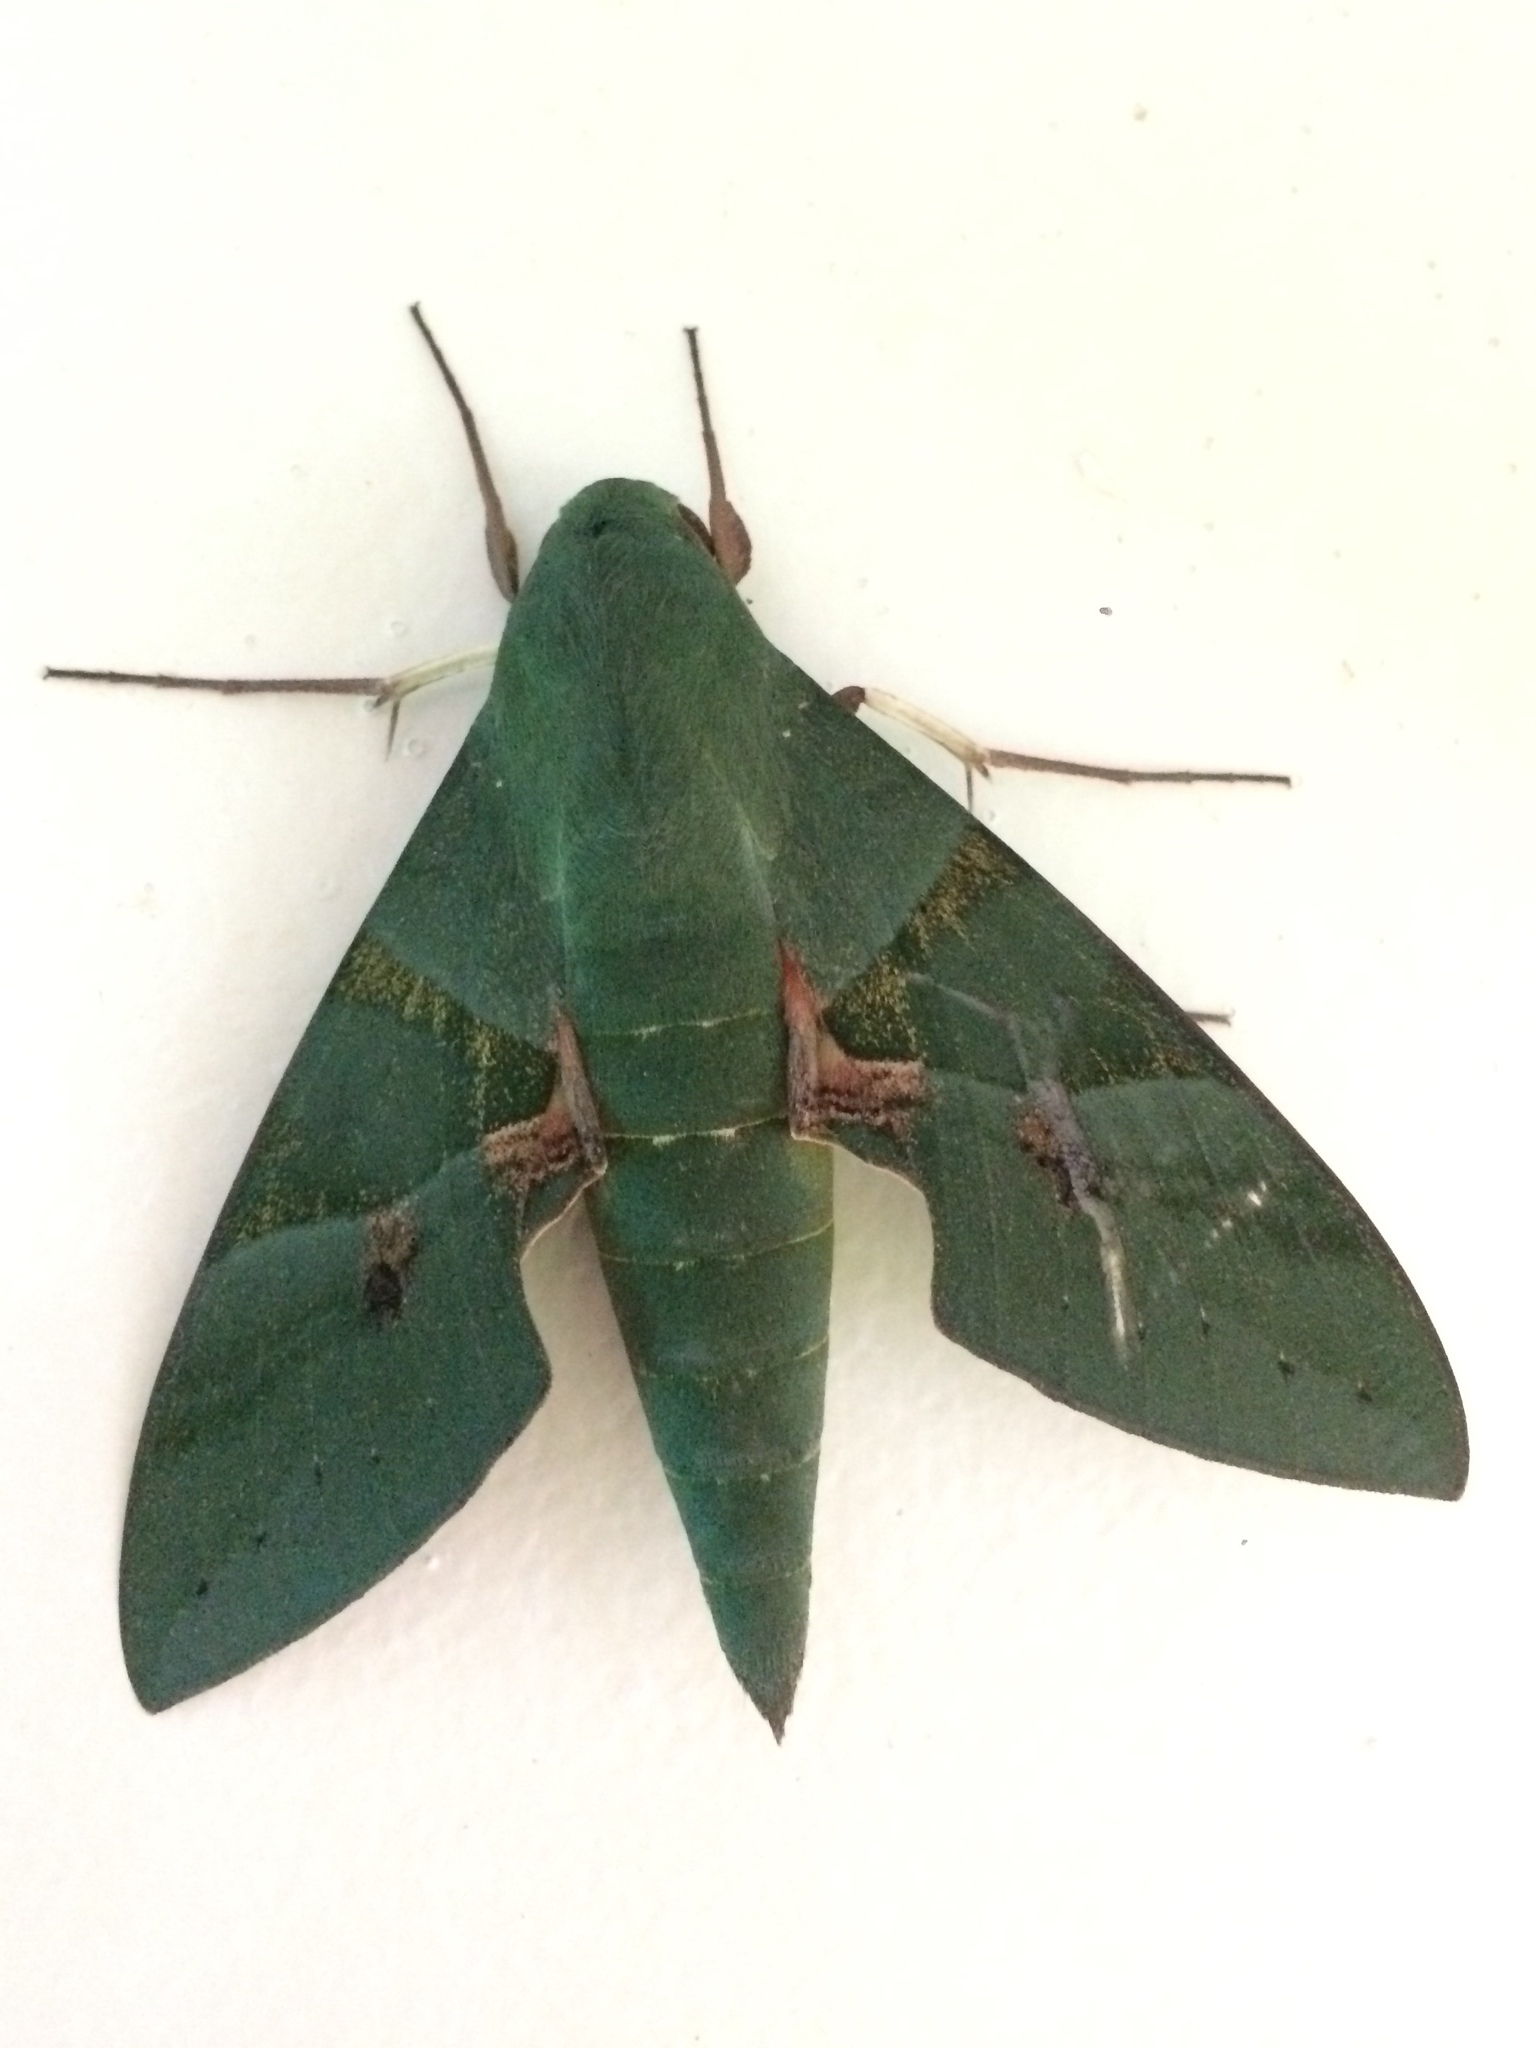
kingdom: Animalia
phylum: Arthropoda
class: Insecta
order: Lepidoptera
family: Sphingidae
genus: Eumorpha
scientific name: Eumorpha labruscae
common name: Gaudy sphinx
